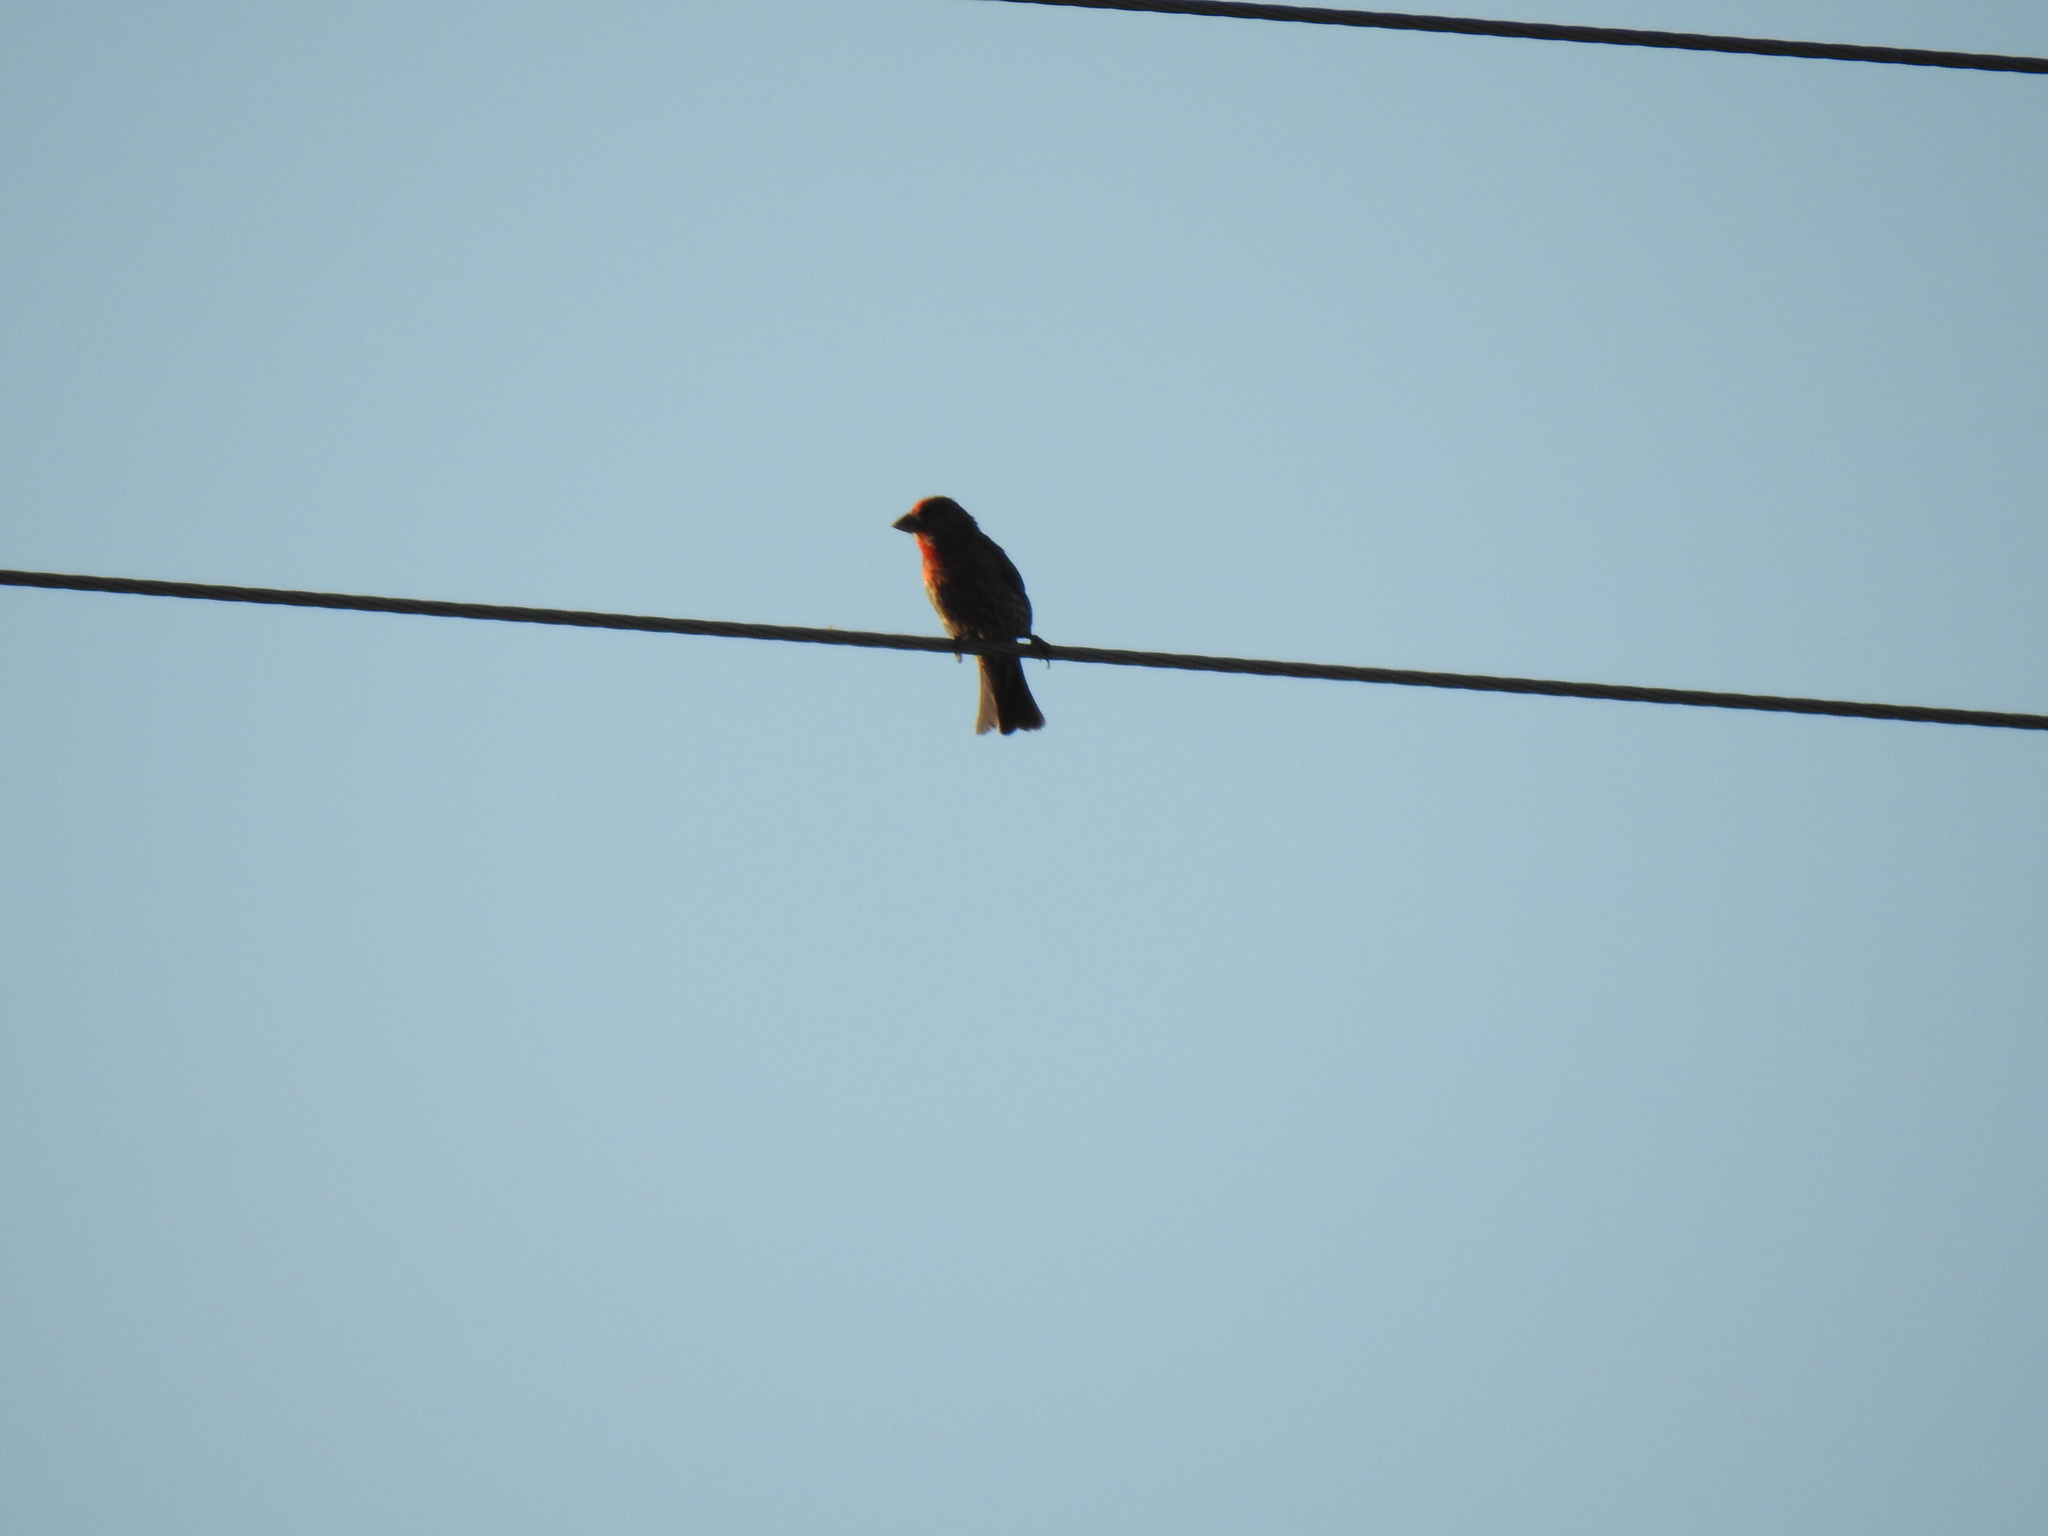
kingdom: Animalia
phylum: Chordata
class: Aves
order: Passeriformes
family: Fringillidae
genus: Haemorhous
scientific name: Haemorhous mexicanus
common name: House finch
